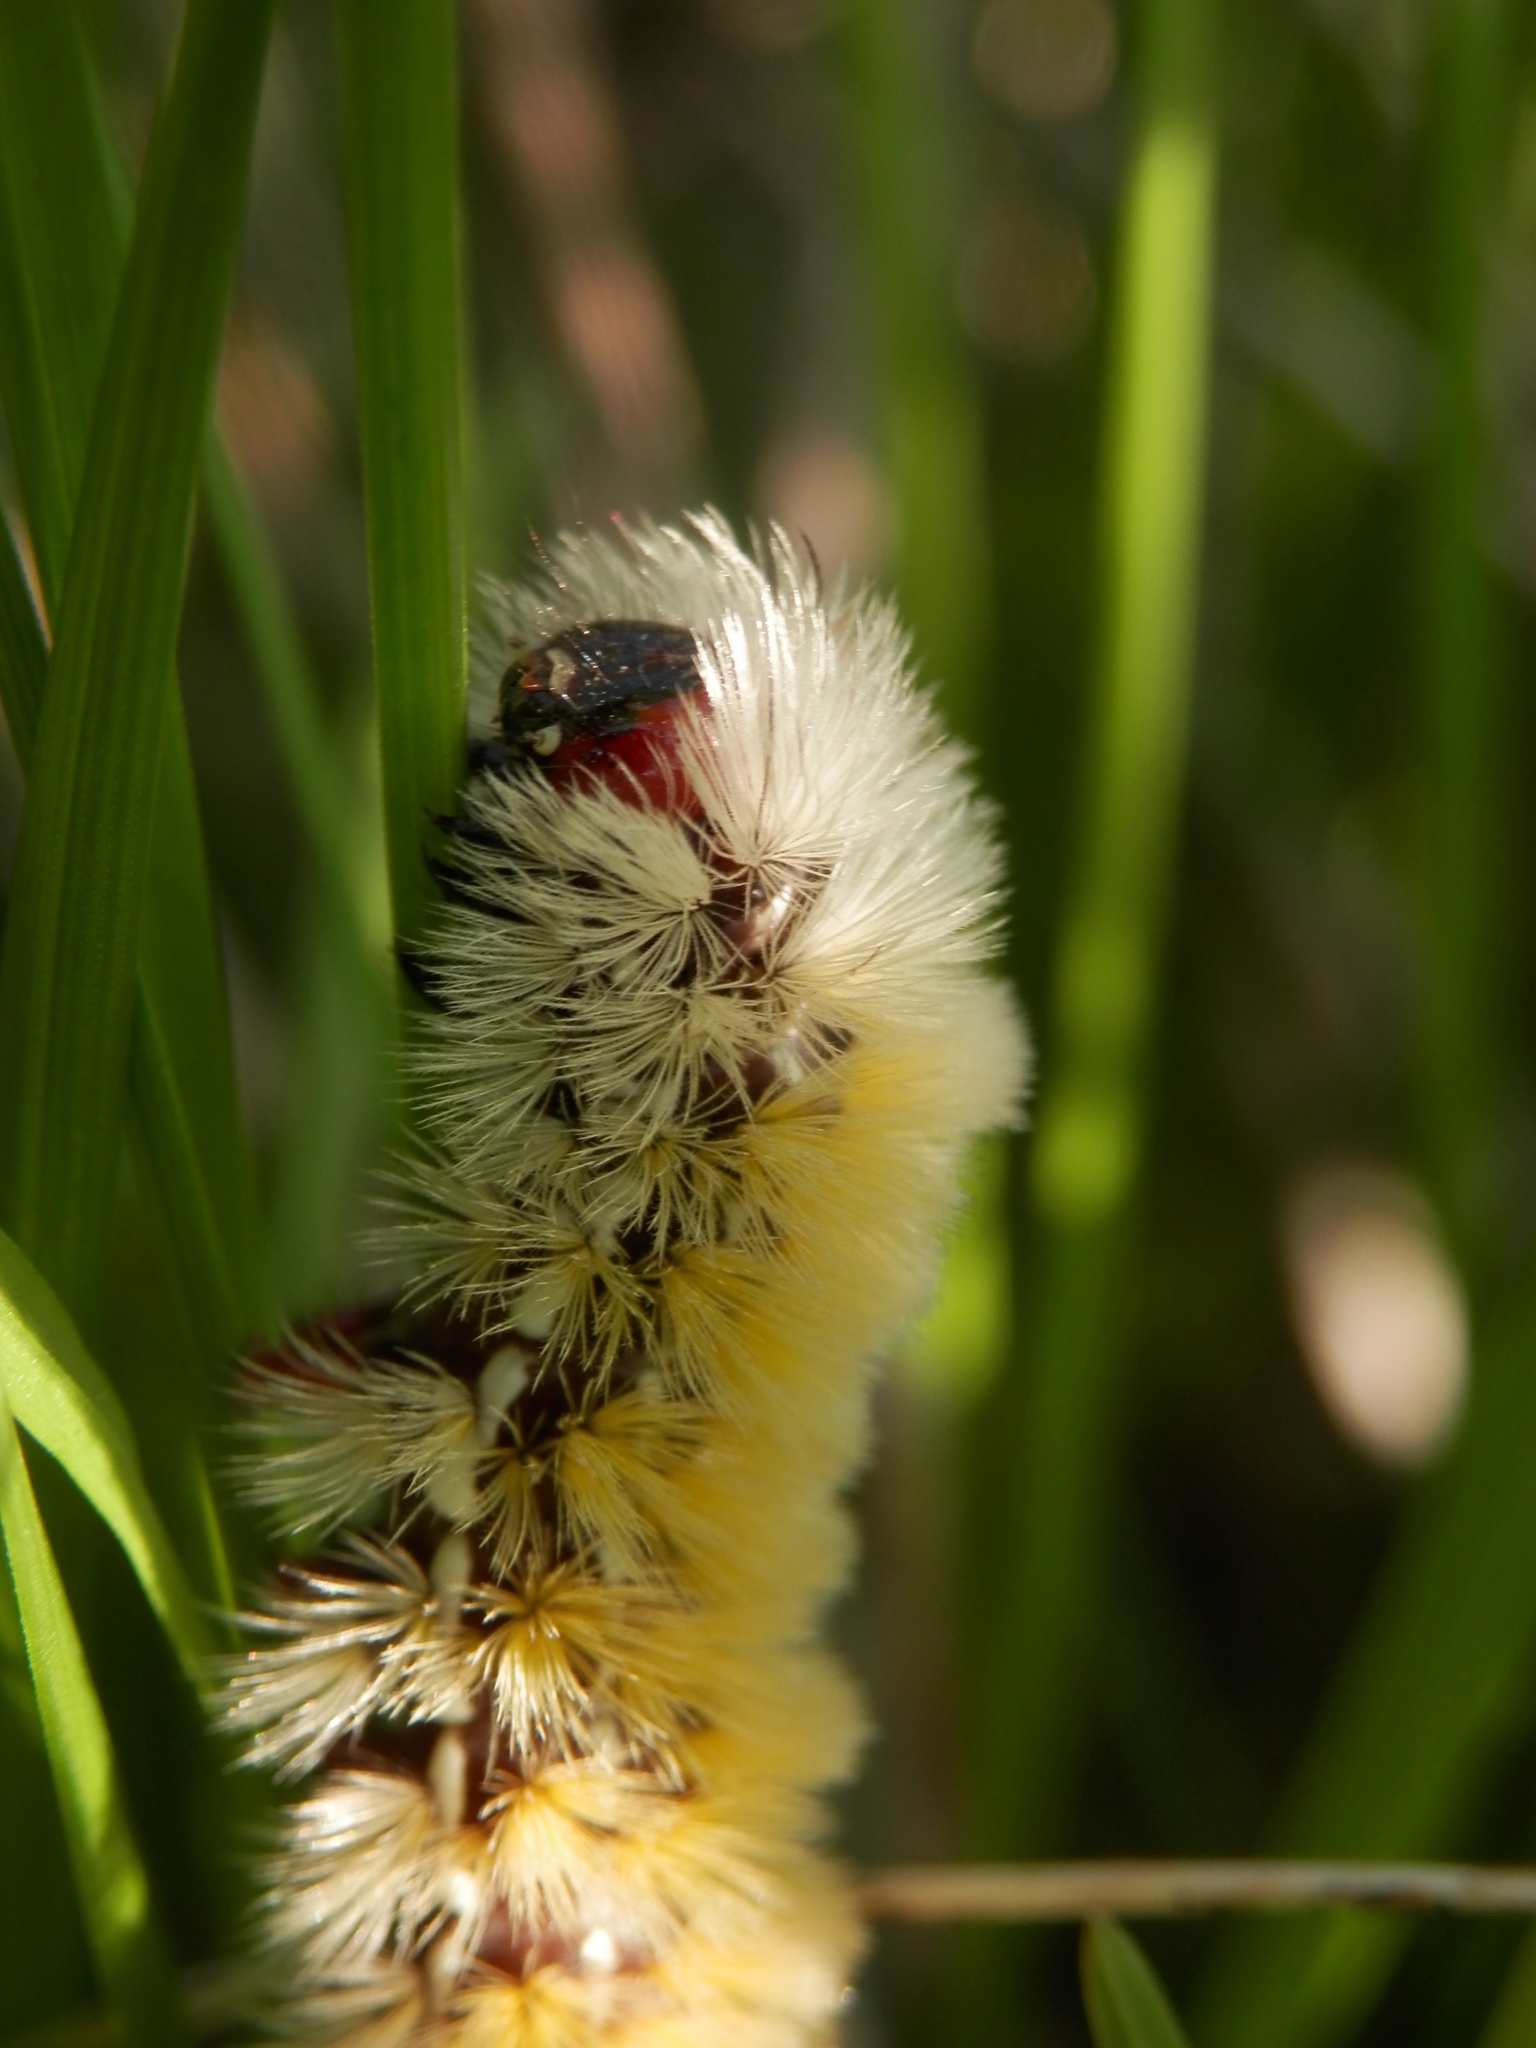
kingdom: Animalia
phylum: Arthropoda
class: Insecta
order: Lepidoptera
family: Erebidae
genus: Ctenucha
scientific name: Ctenucha virginica
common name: Virginia ctenucha moth
